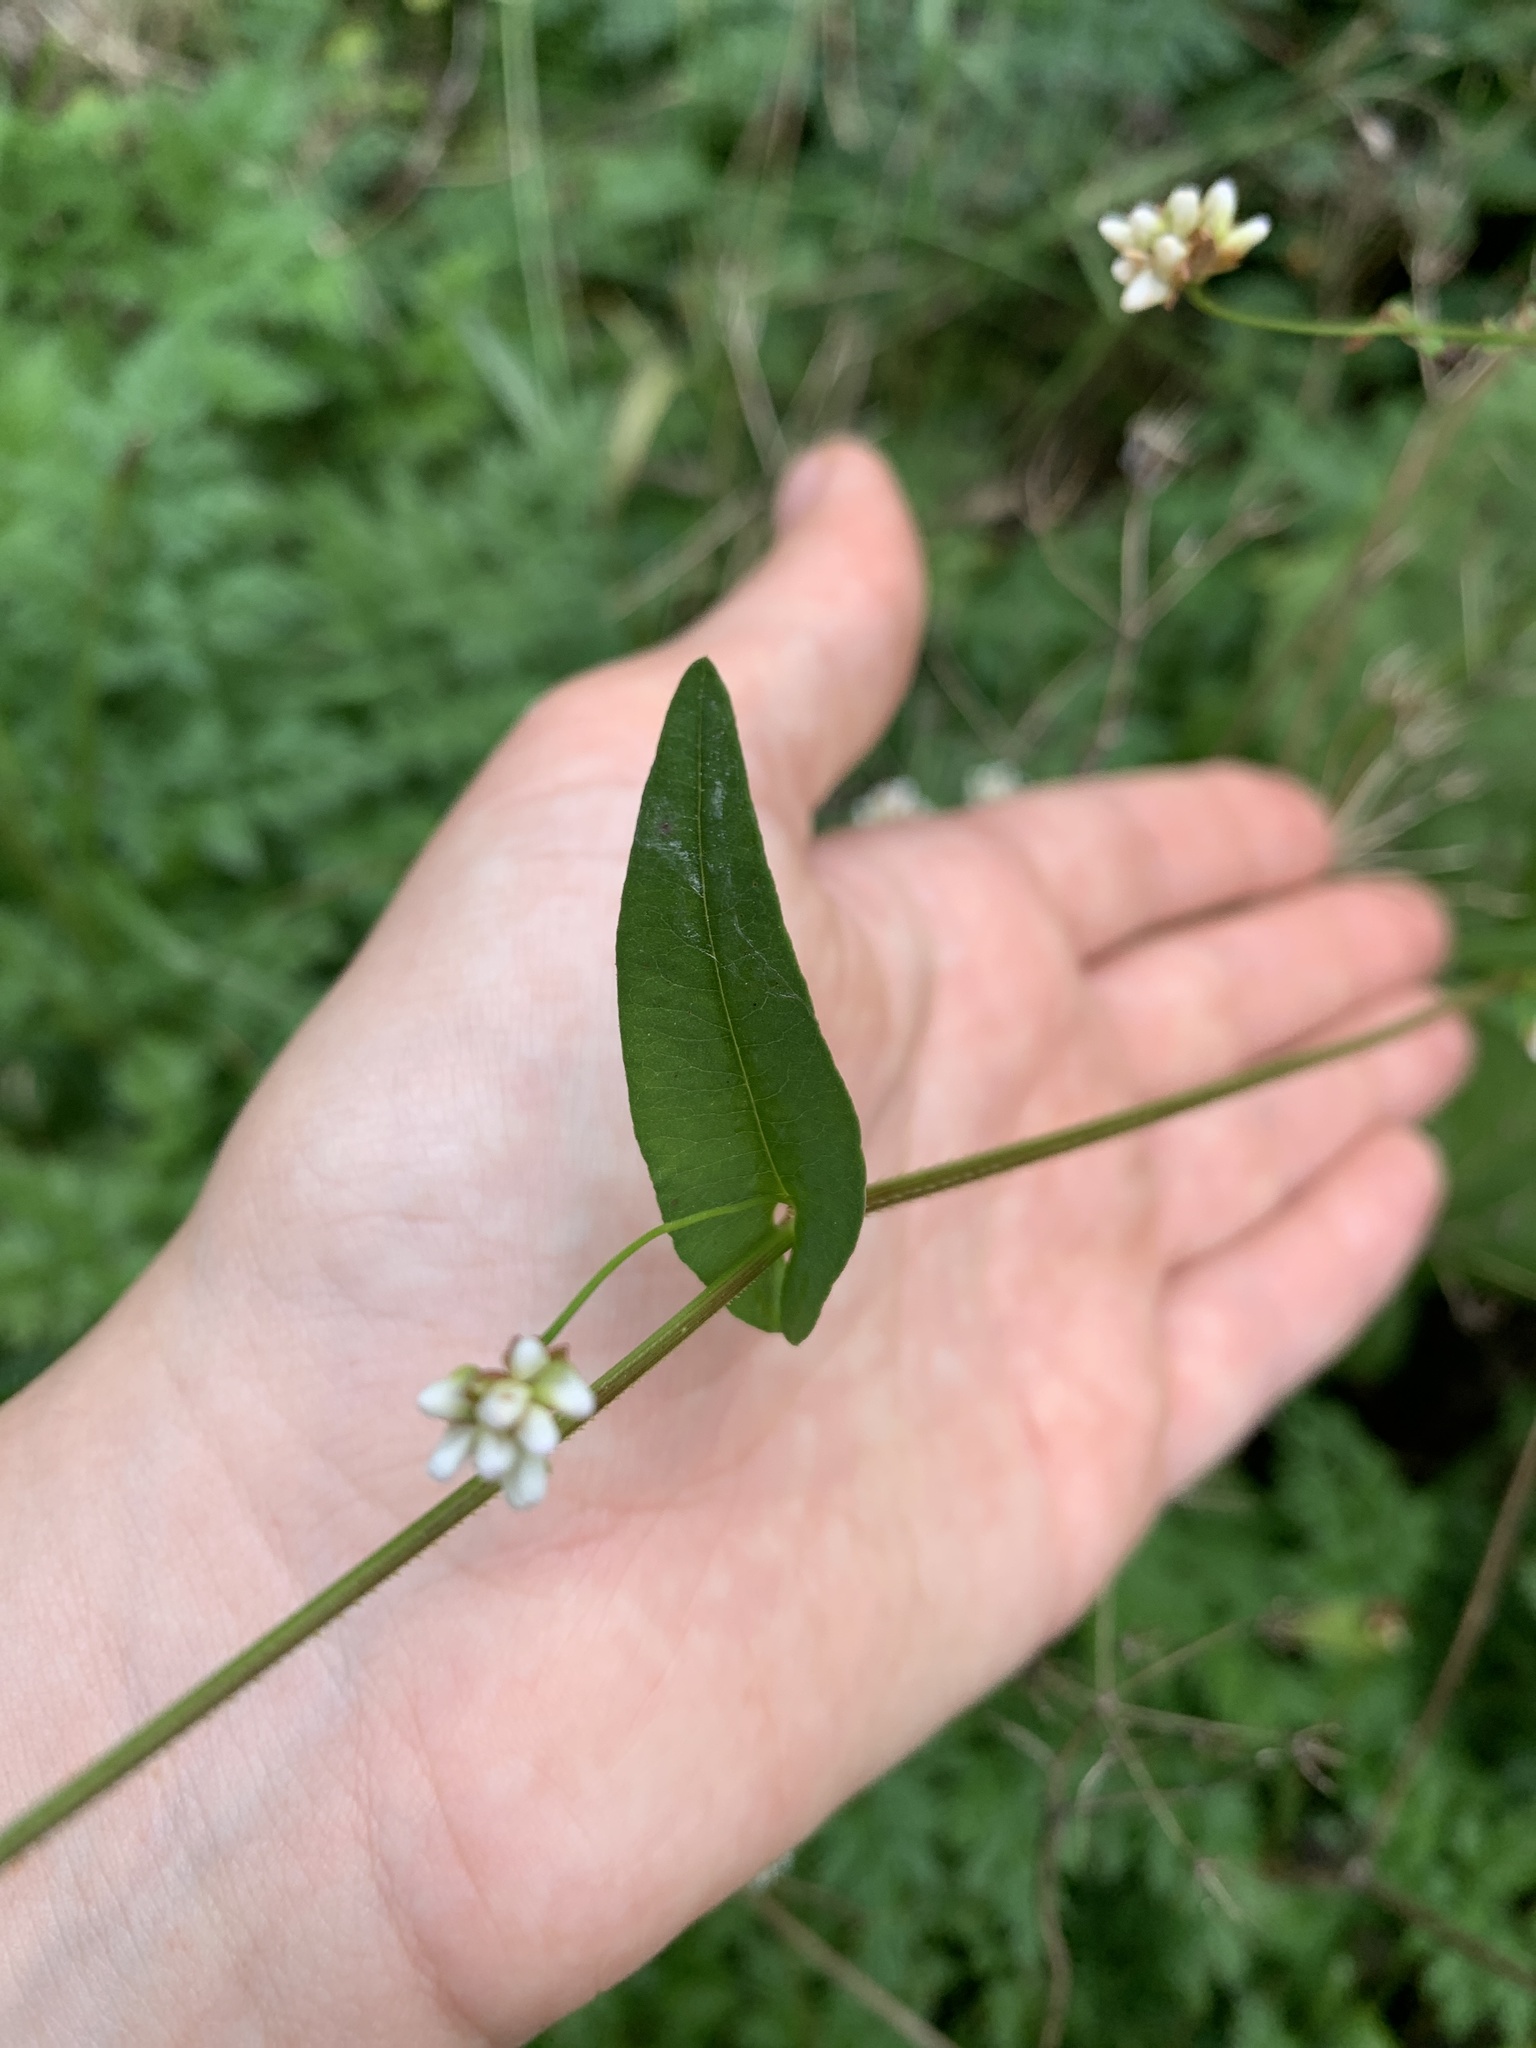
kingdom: Plantae
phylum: Tracheophyta
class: Magnoliopsida
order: Caryophyllales
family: Polygonaceae
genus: Persicaria
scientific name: Persicaria sagittata
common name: American tearthumb
